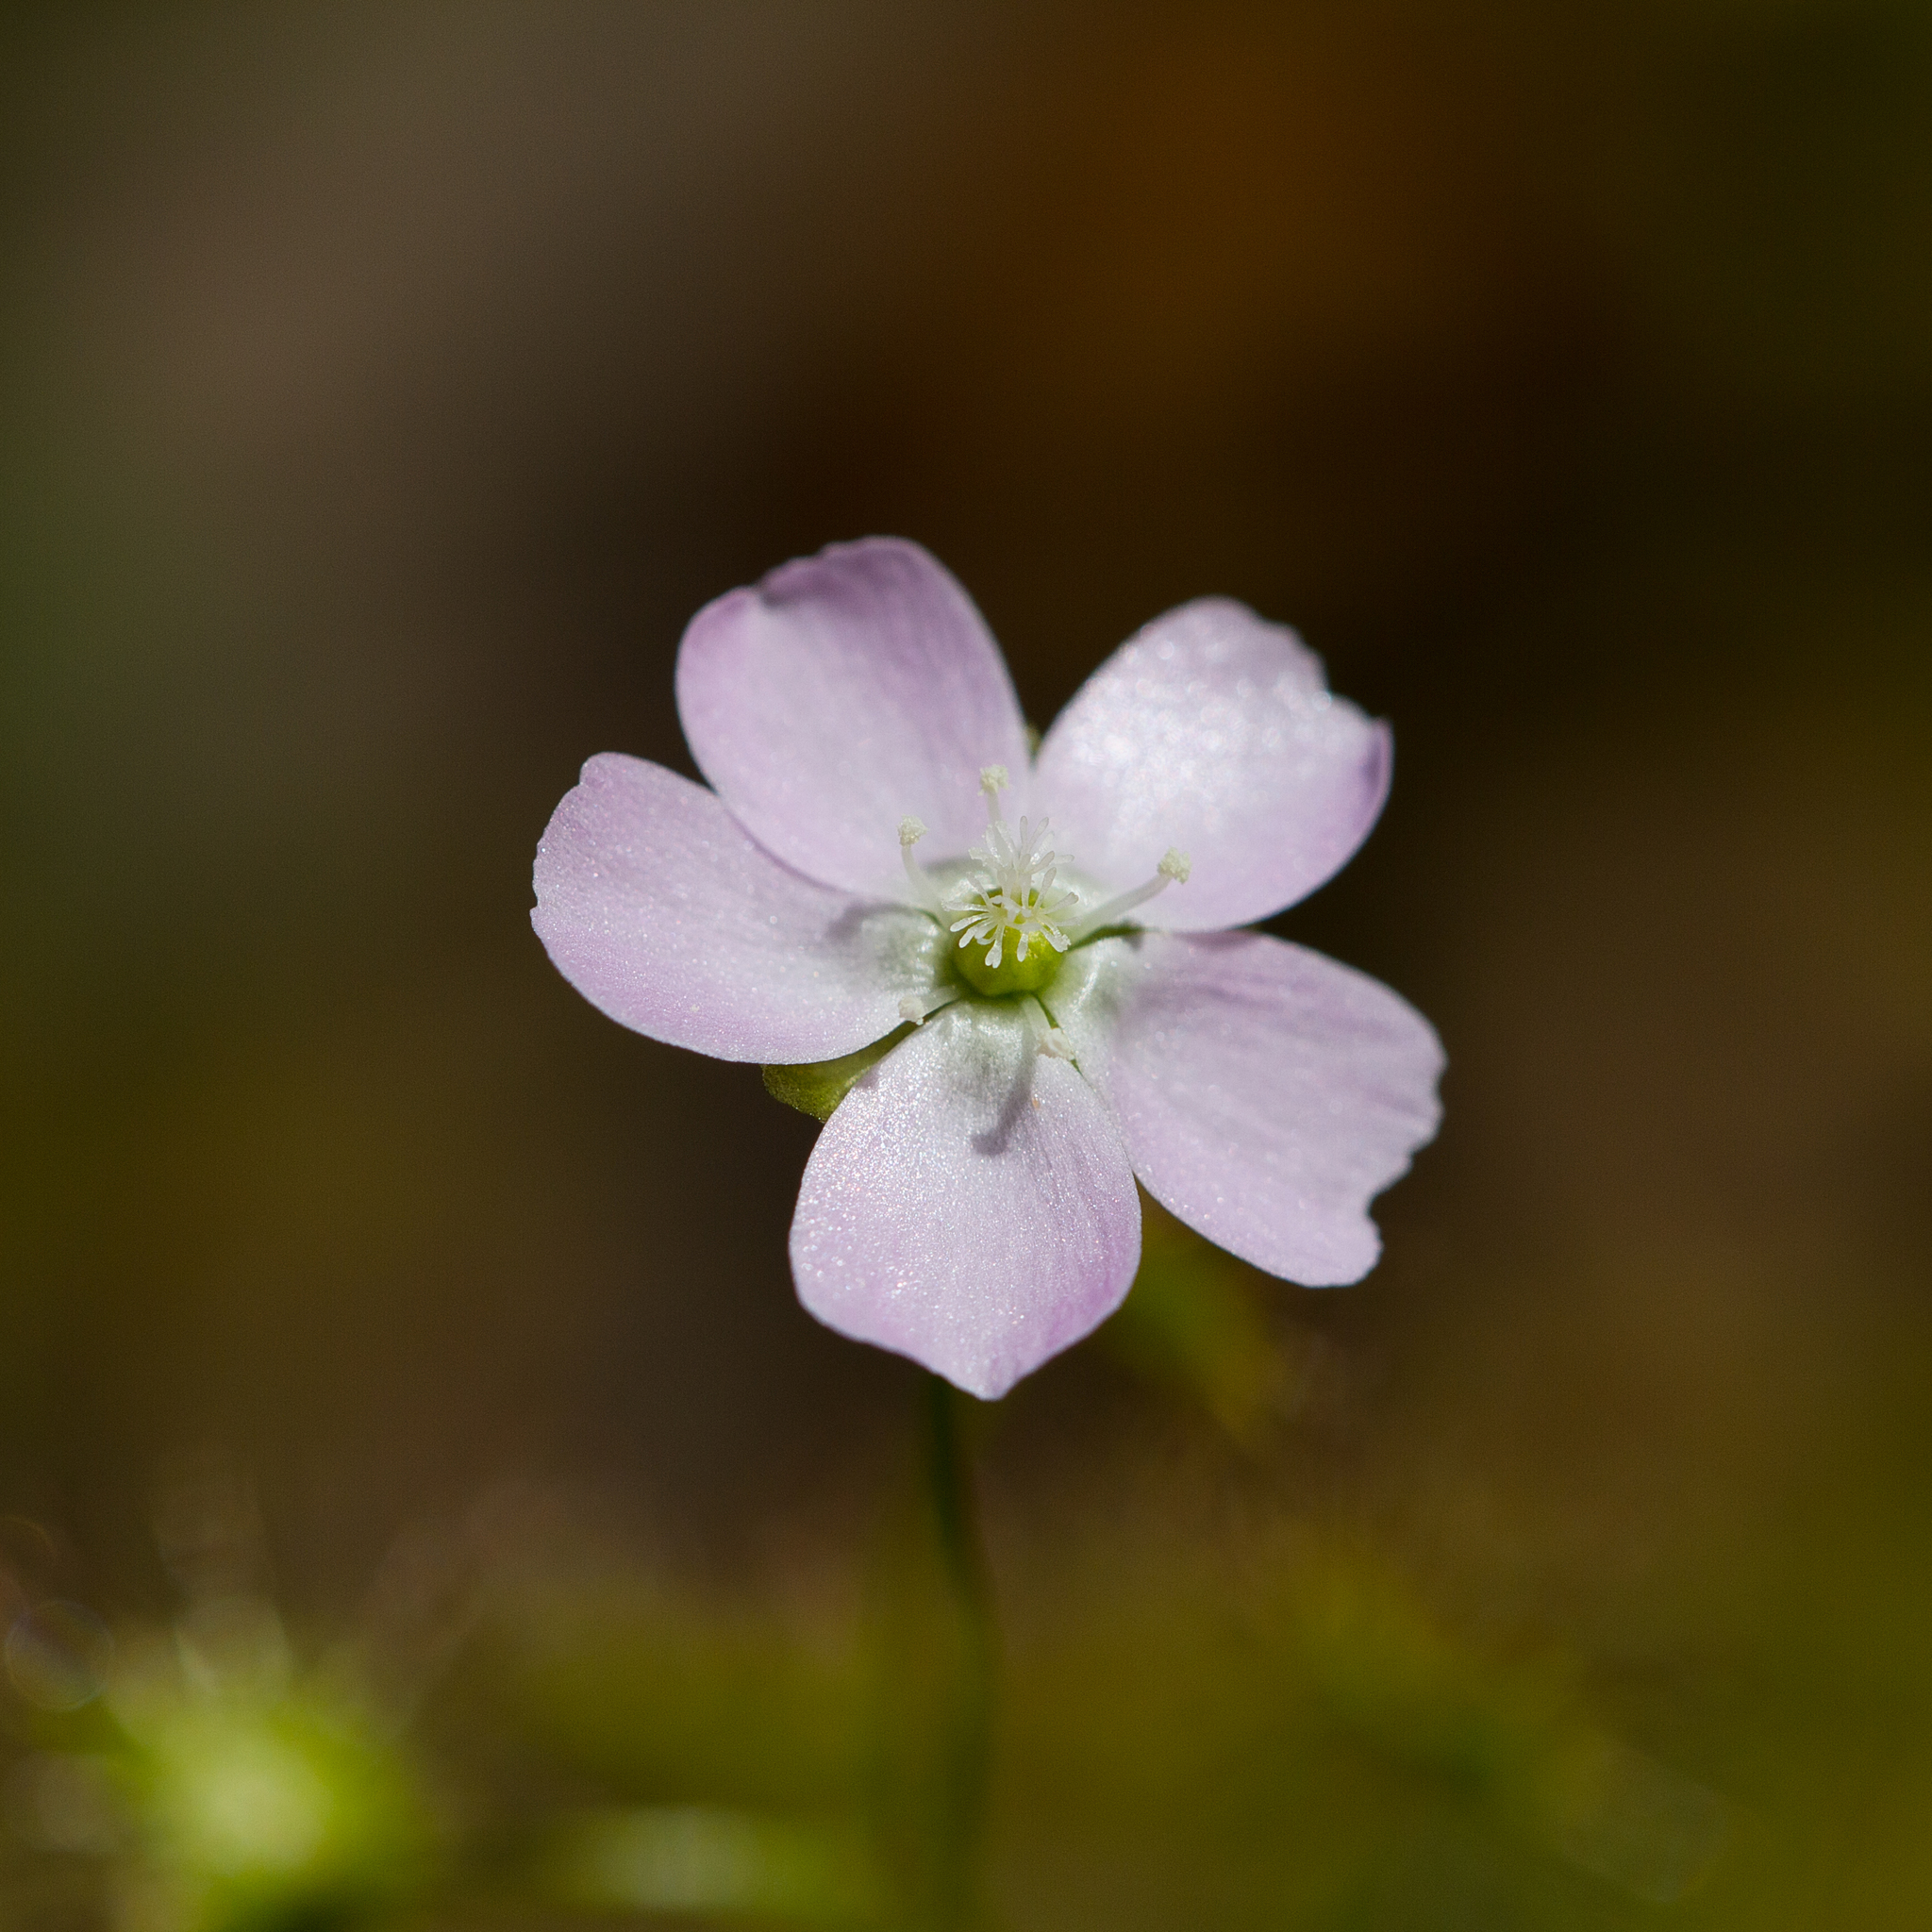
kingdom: Plantae
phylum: Tracheophyta
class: Magnoliopsida
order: Caryophyllales
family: Droseraceae
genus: Drosera
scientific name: Drosera peltata
